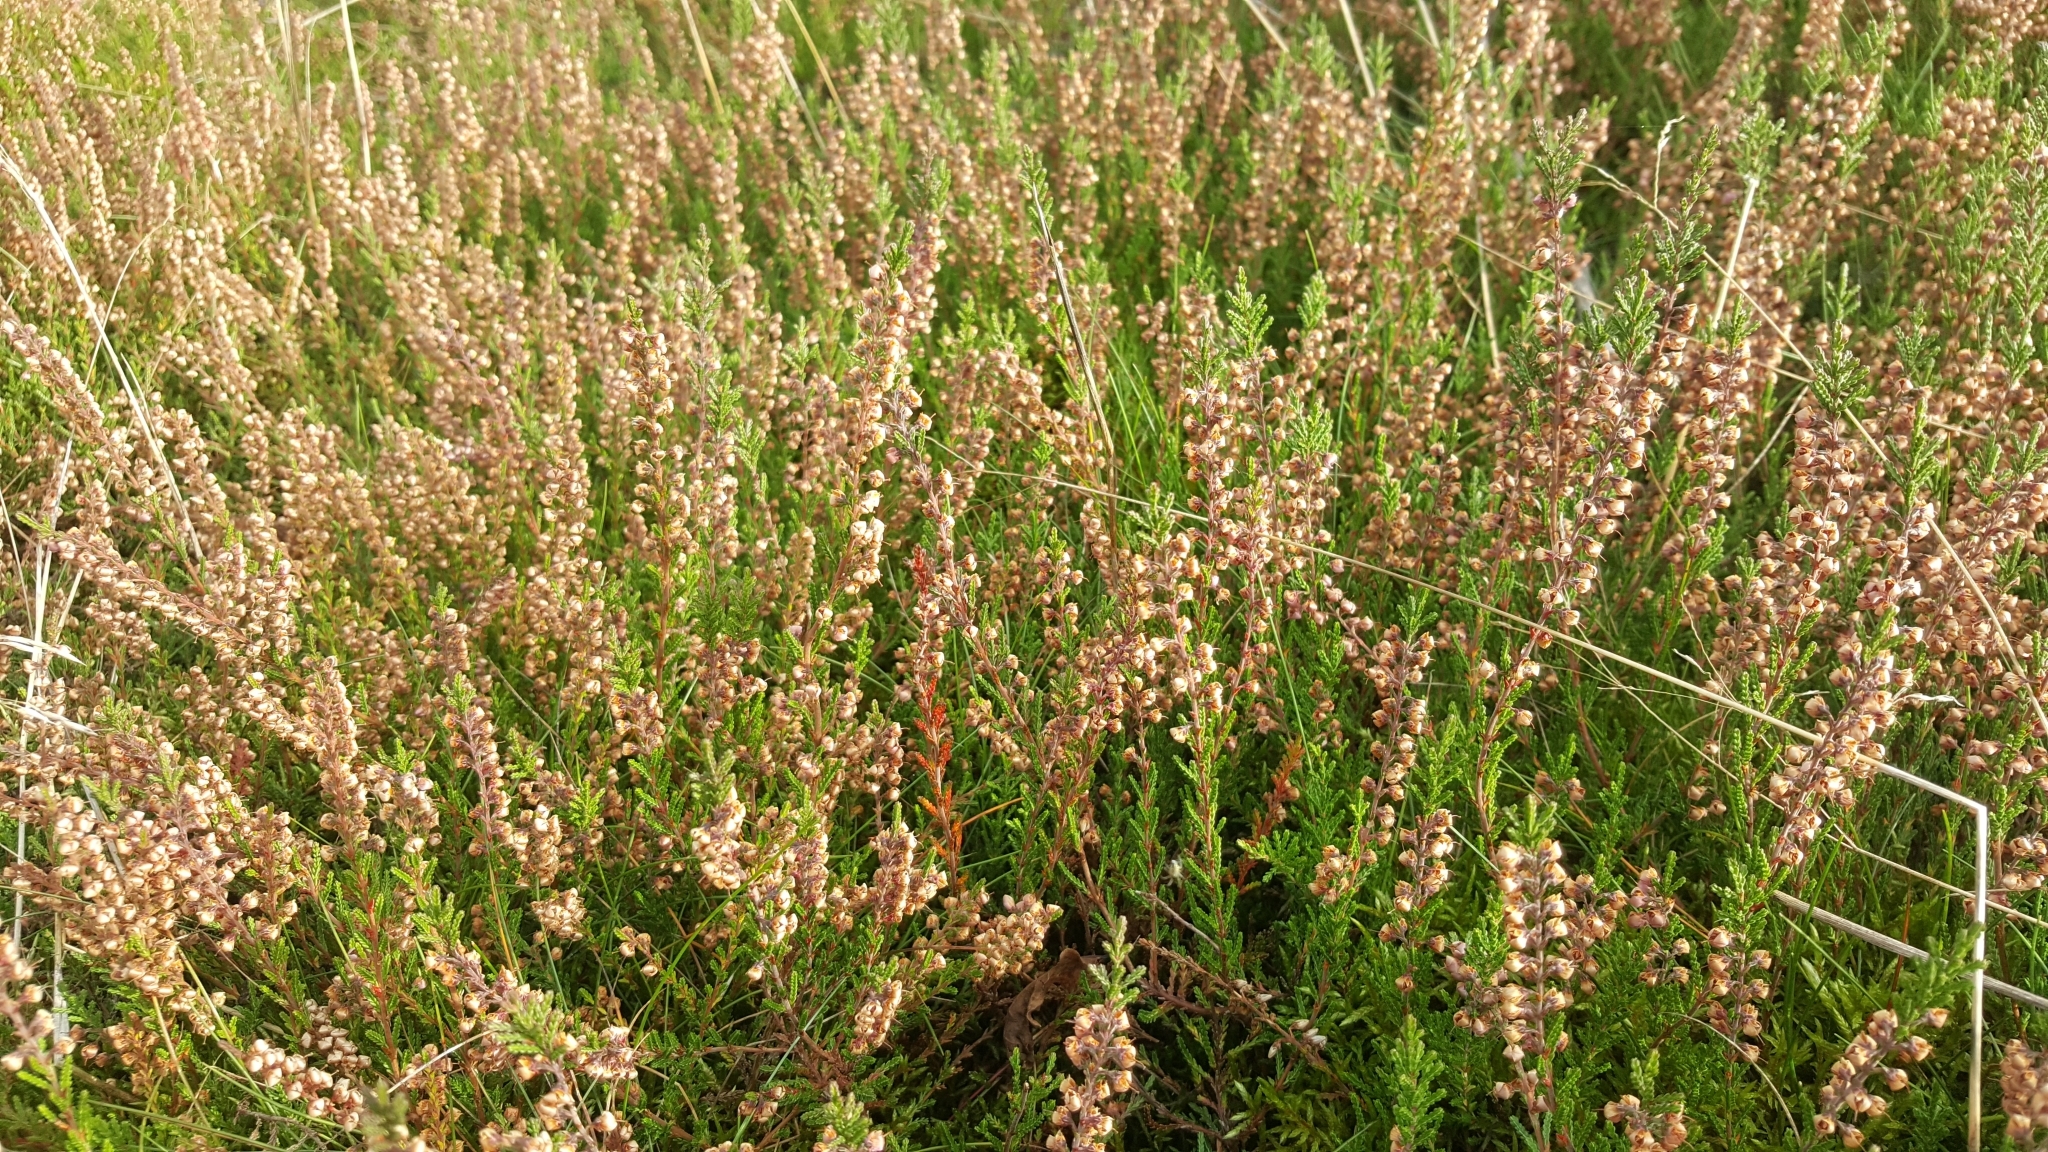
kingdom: Plantae
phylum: Tracheophyta
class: Magnoliopsida
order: Ericales
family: Ericaceae
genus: Calluna
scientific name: Calluna vulgaris
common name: Heather
